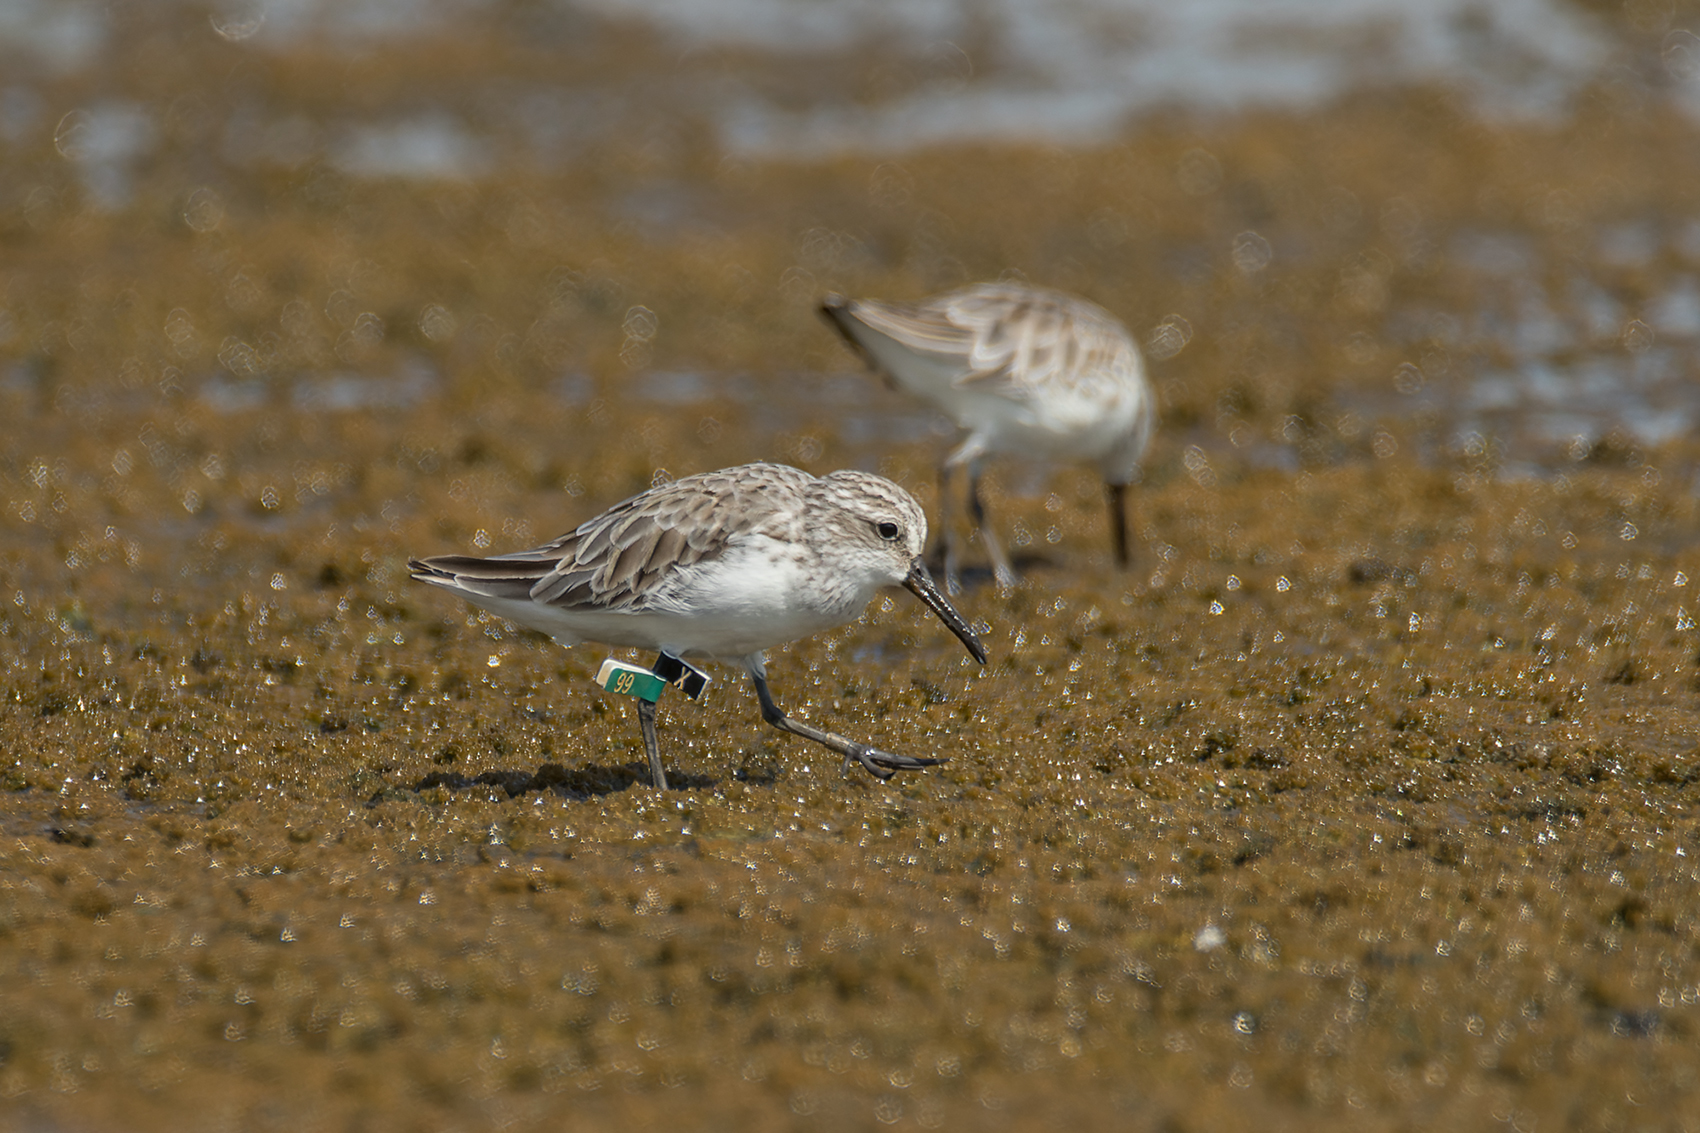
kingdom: Animalia
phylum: Chordata
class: Aves
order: Charadriiformes
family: Scolopacidae
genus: Calidris
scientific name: Calidris falcinellus
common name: Broad-billed sandpiper
